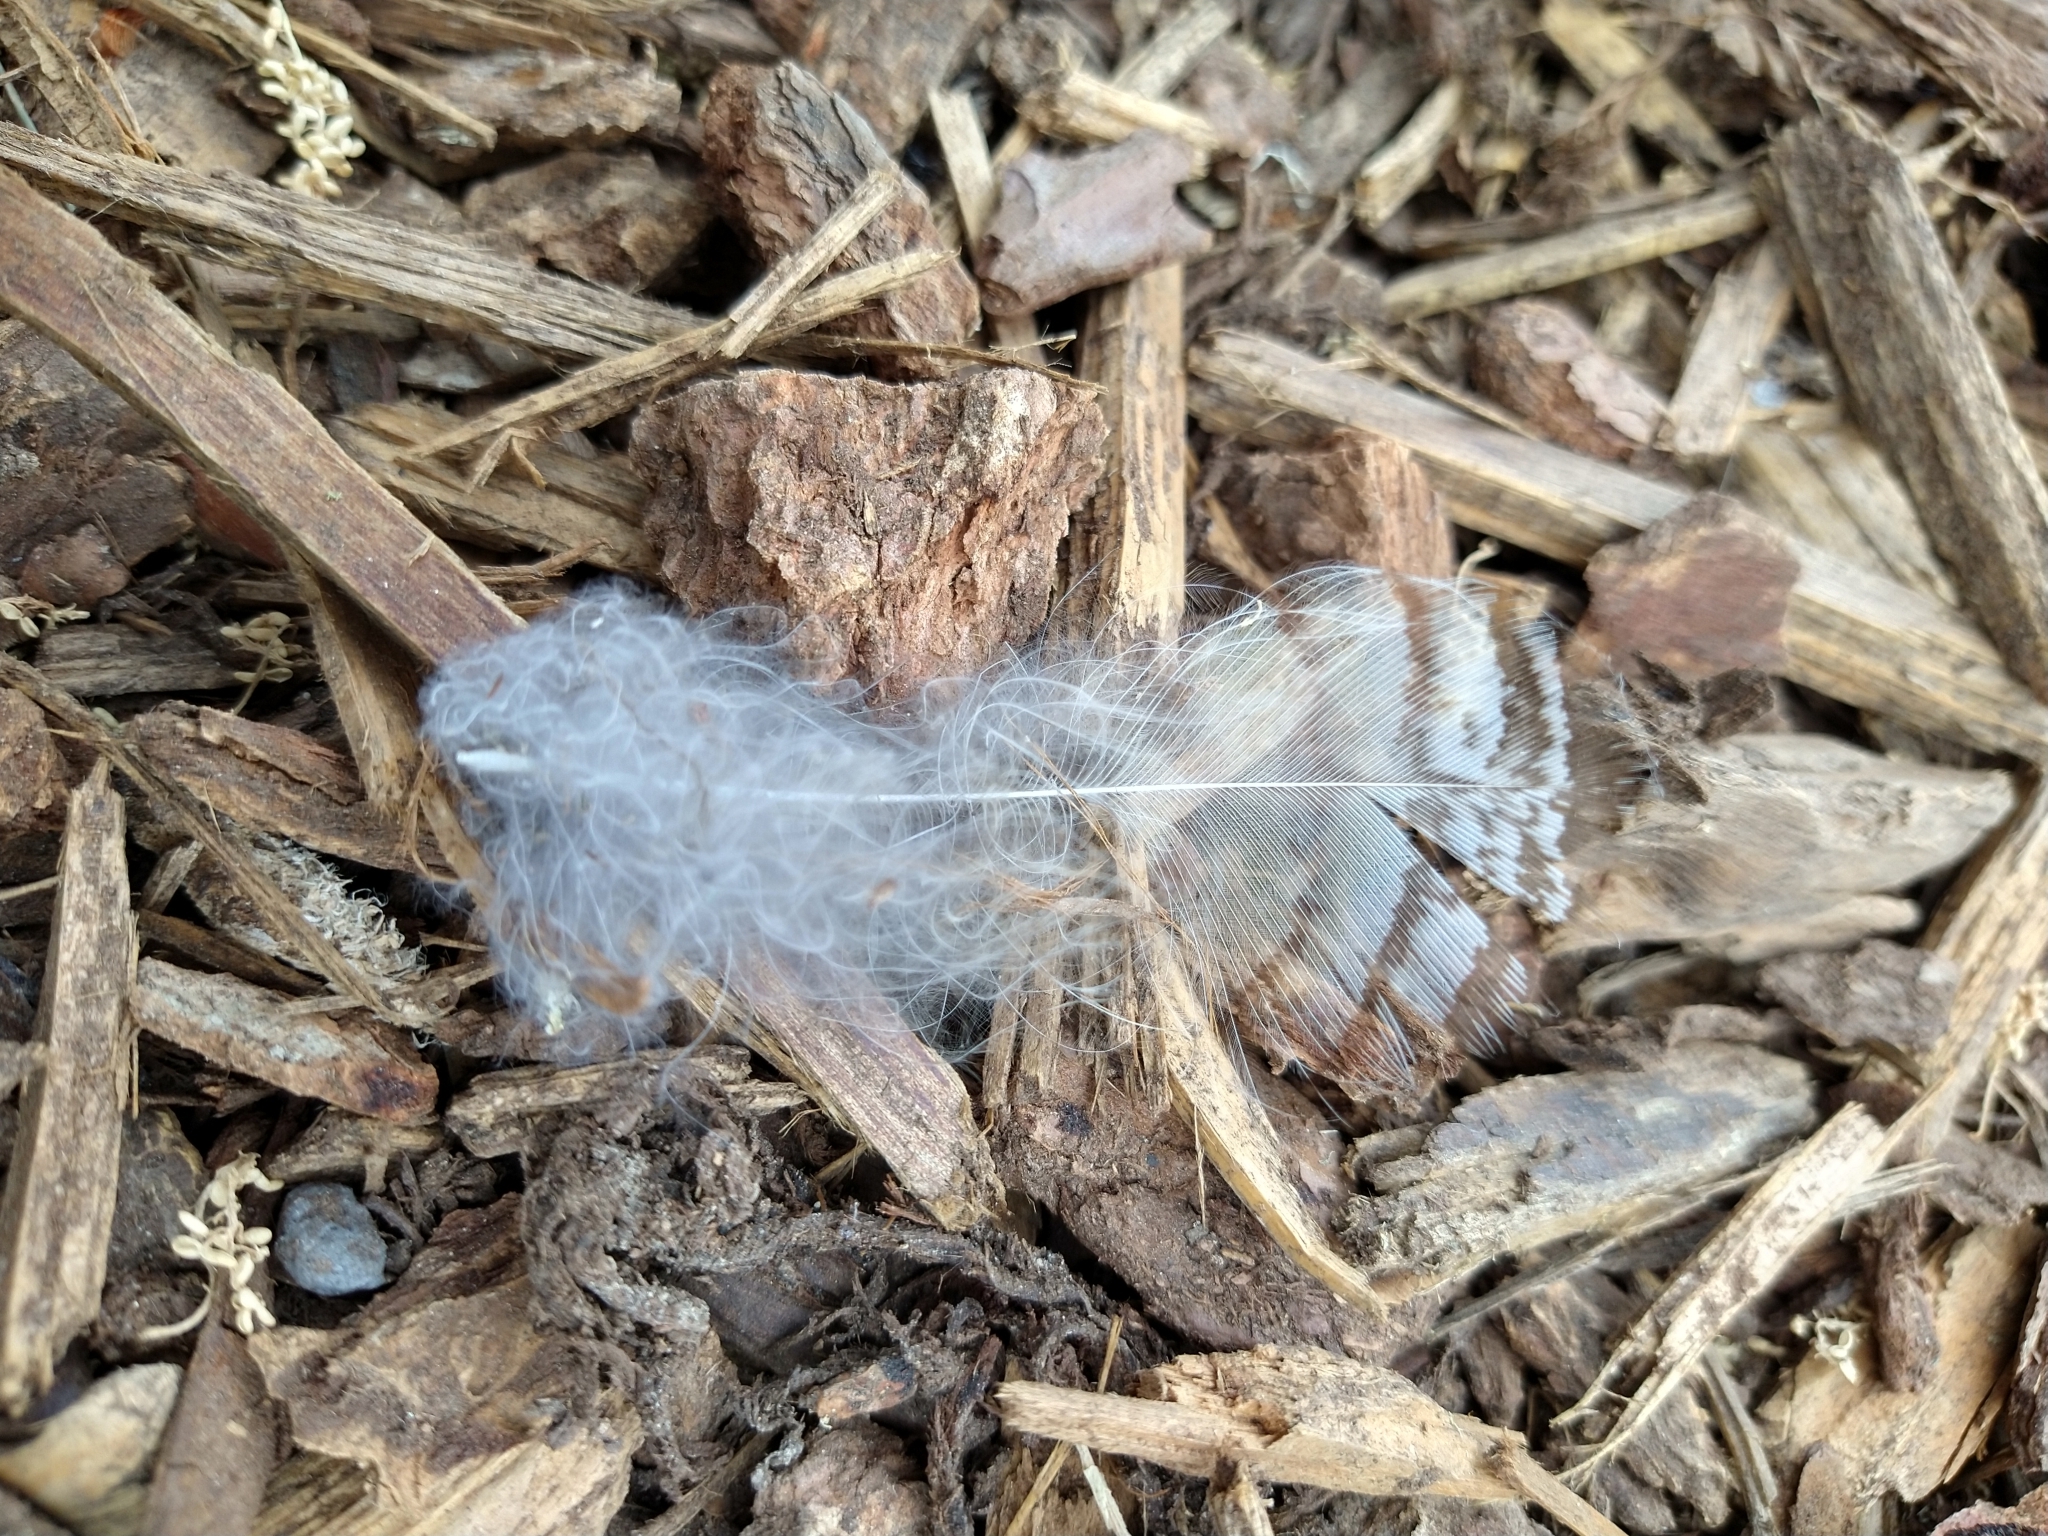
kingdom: Animalia
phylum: Chordata
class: Aves
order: Strigiformes
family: Strigidae
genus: Bubo
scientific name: Bubo virginianus
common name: Great horned owl
